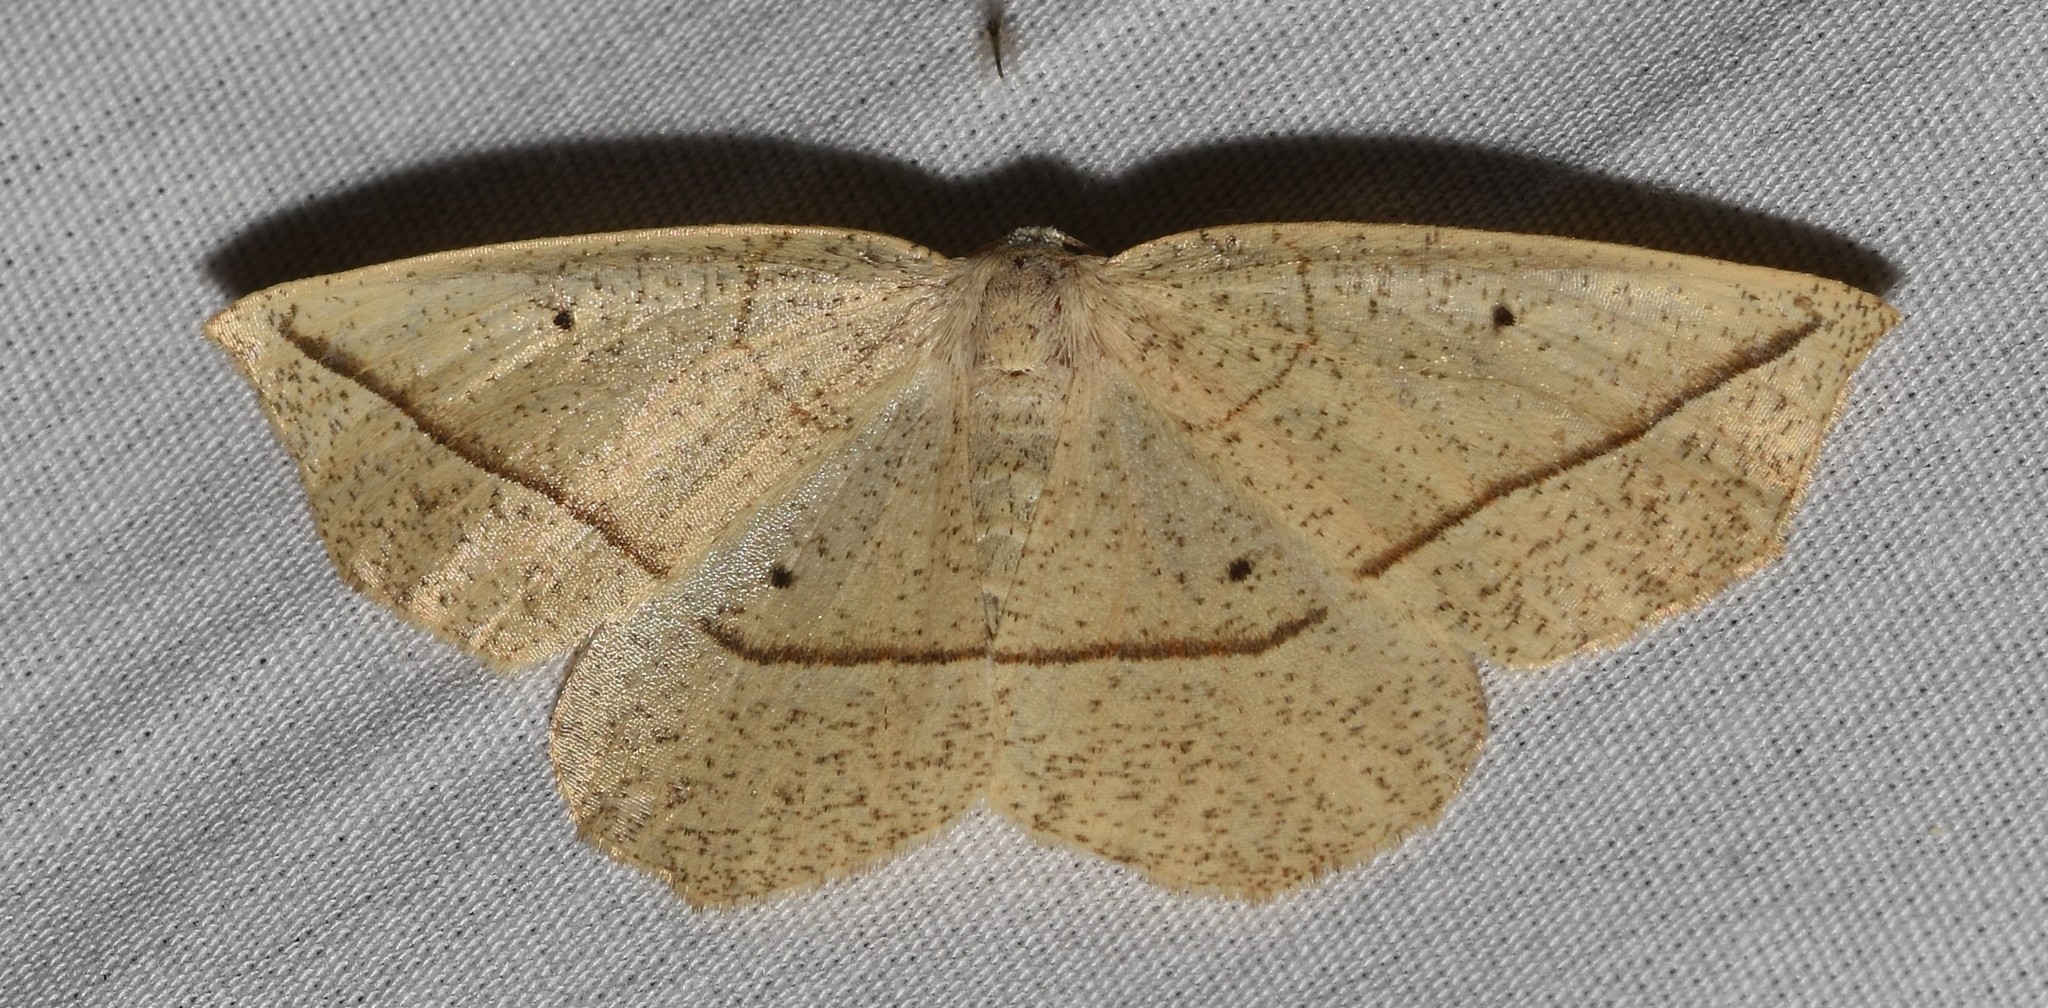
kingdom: Animalia
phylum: Arthropoda
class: Insecta
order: Lepidoptera
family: Geometridae
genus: Eusarca
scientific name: Eusarca confusaria
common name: Confused eusarca
